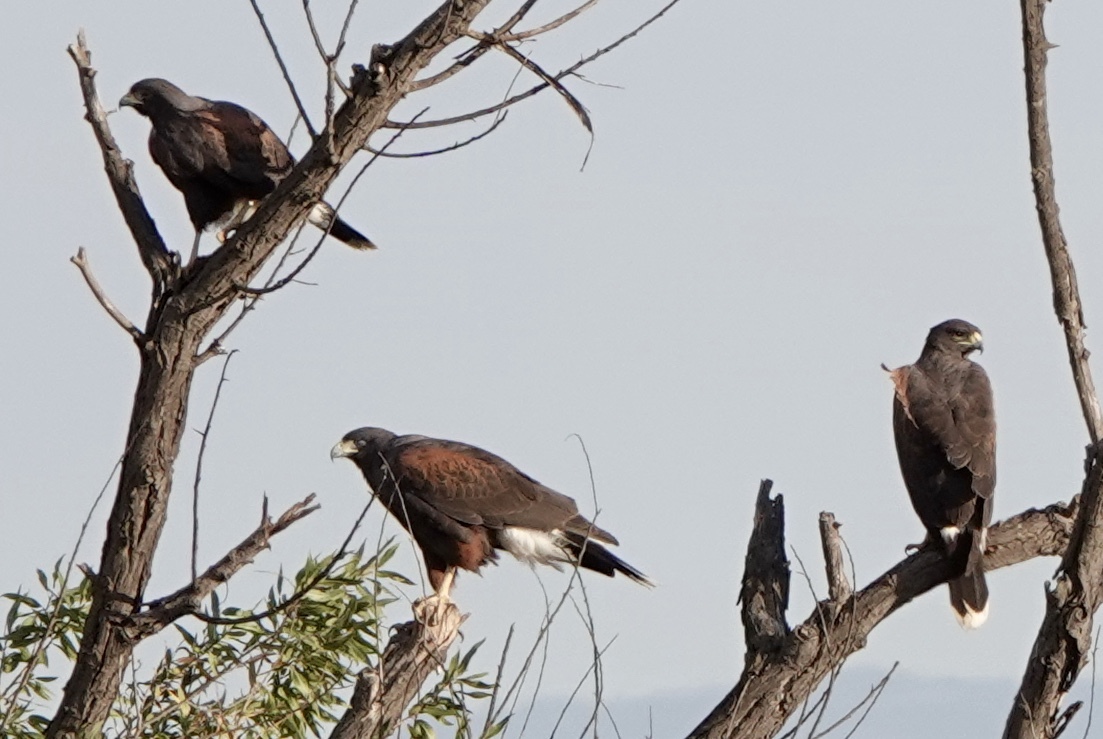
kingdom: Animalia
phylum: Chordata
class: Aves
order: Accipitriformes
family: Accipitridae
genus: Parabuteo
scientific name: Parabuteo unicinctus
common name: Harris's hawk
